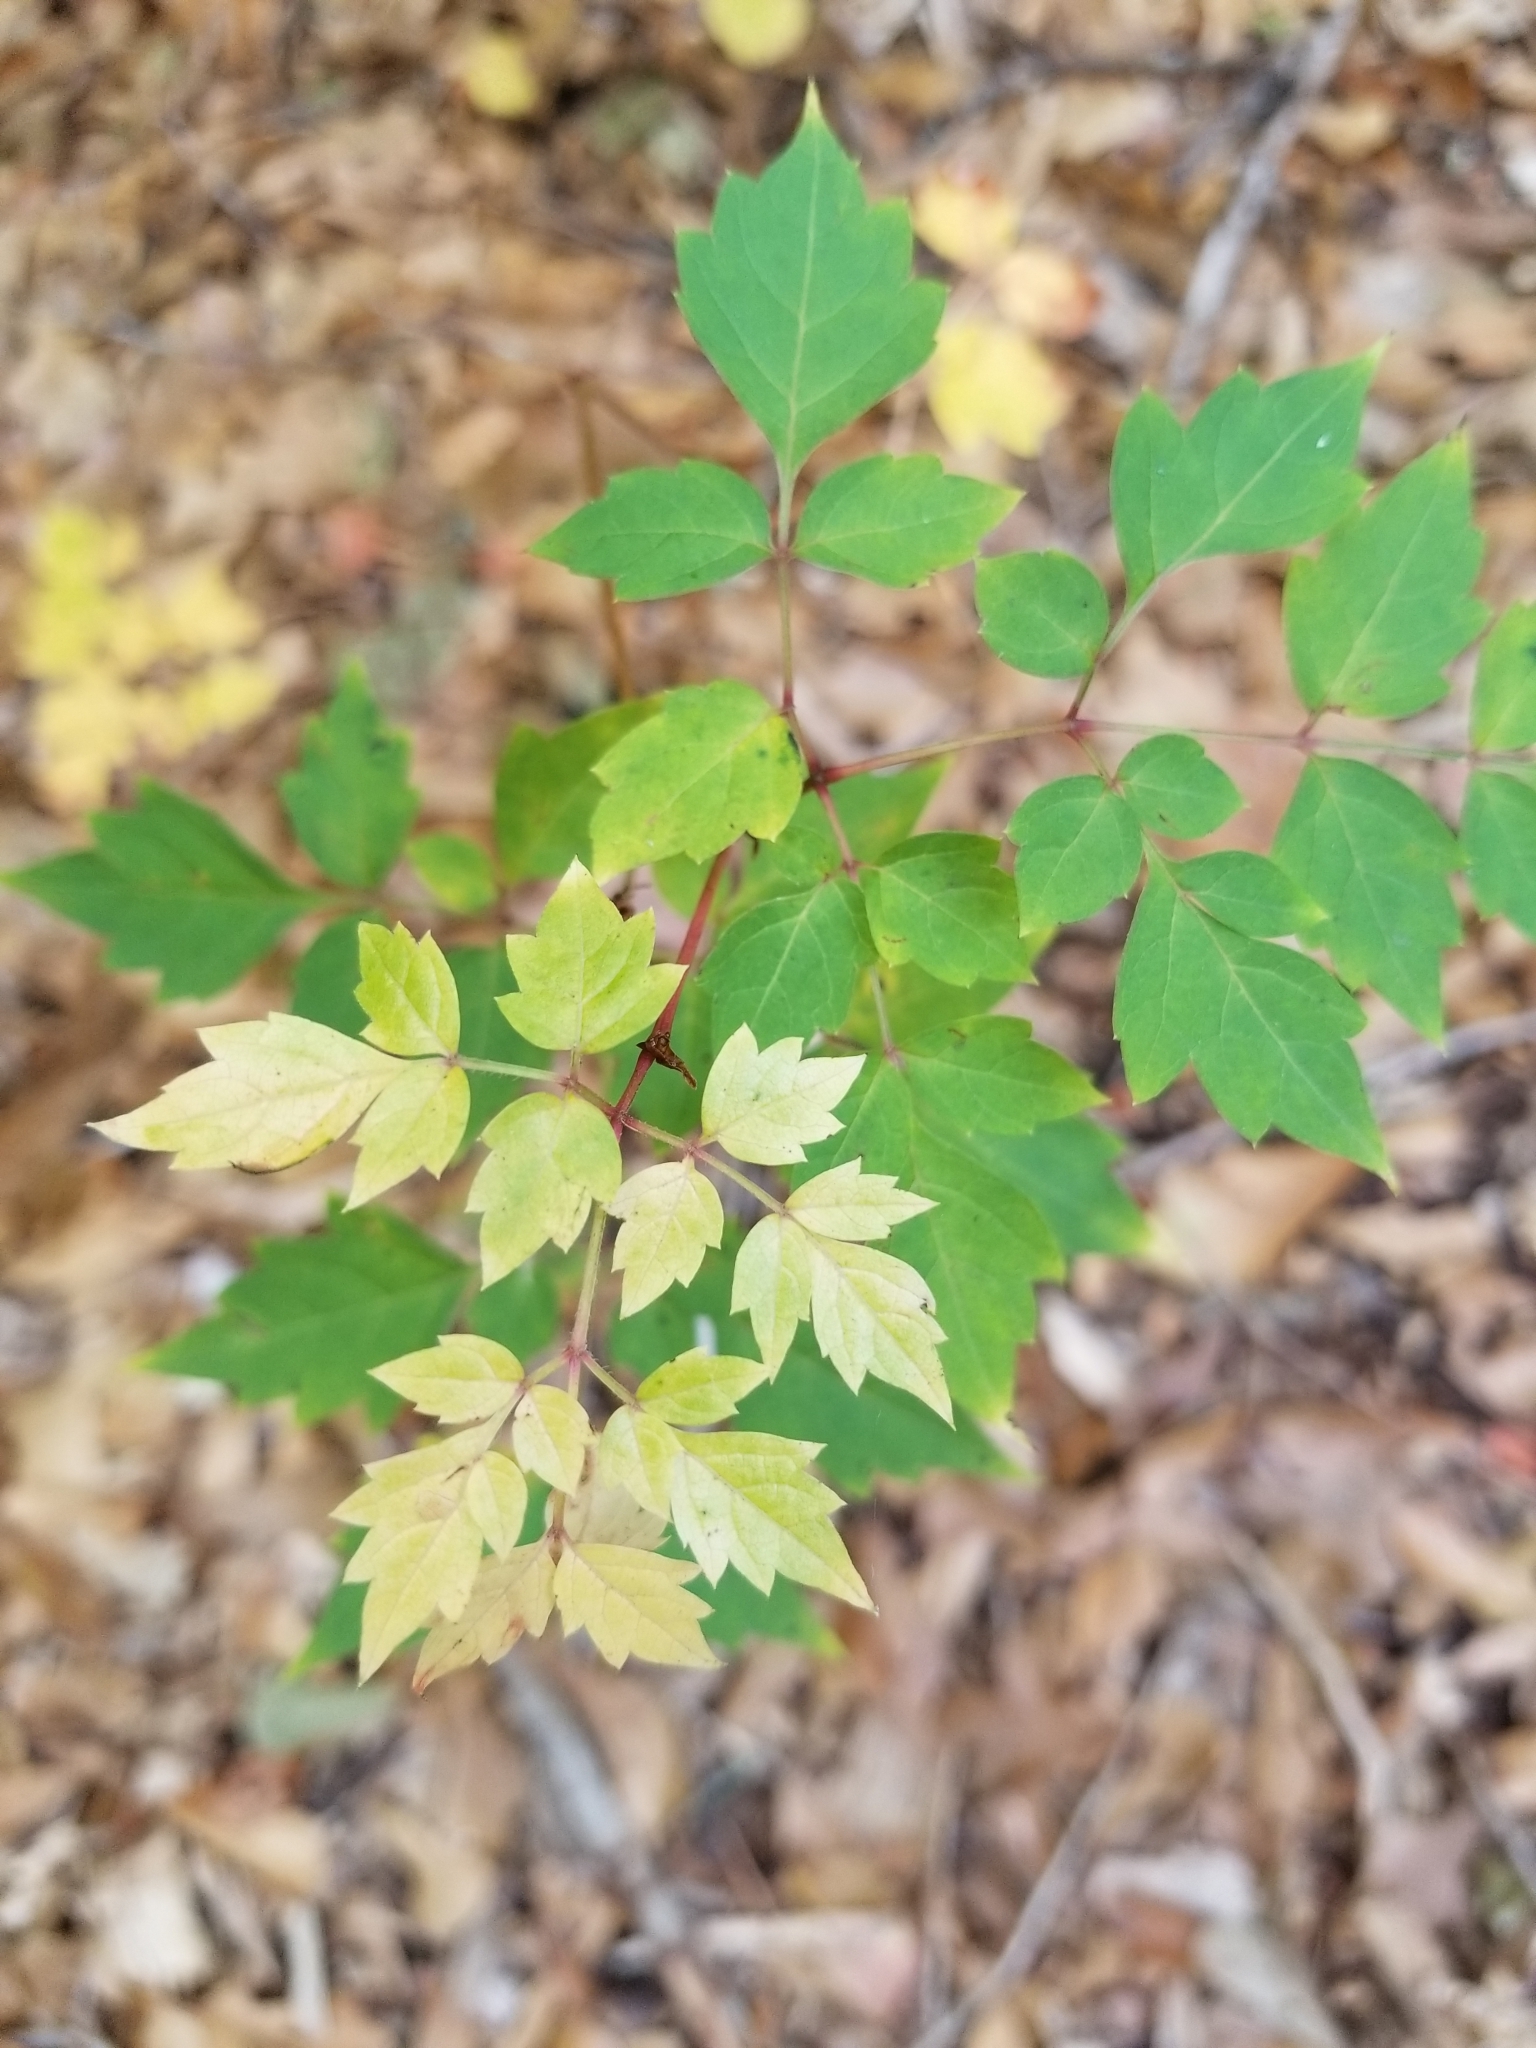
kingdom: Plantae
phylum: Tracheophyta
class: Magnoliopsida
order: Vitales
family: Vitaceae
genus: Nekemias
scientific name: Nekemias arborea
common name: Peppervine
